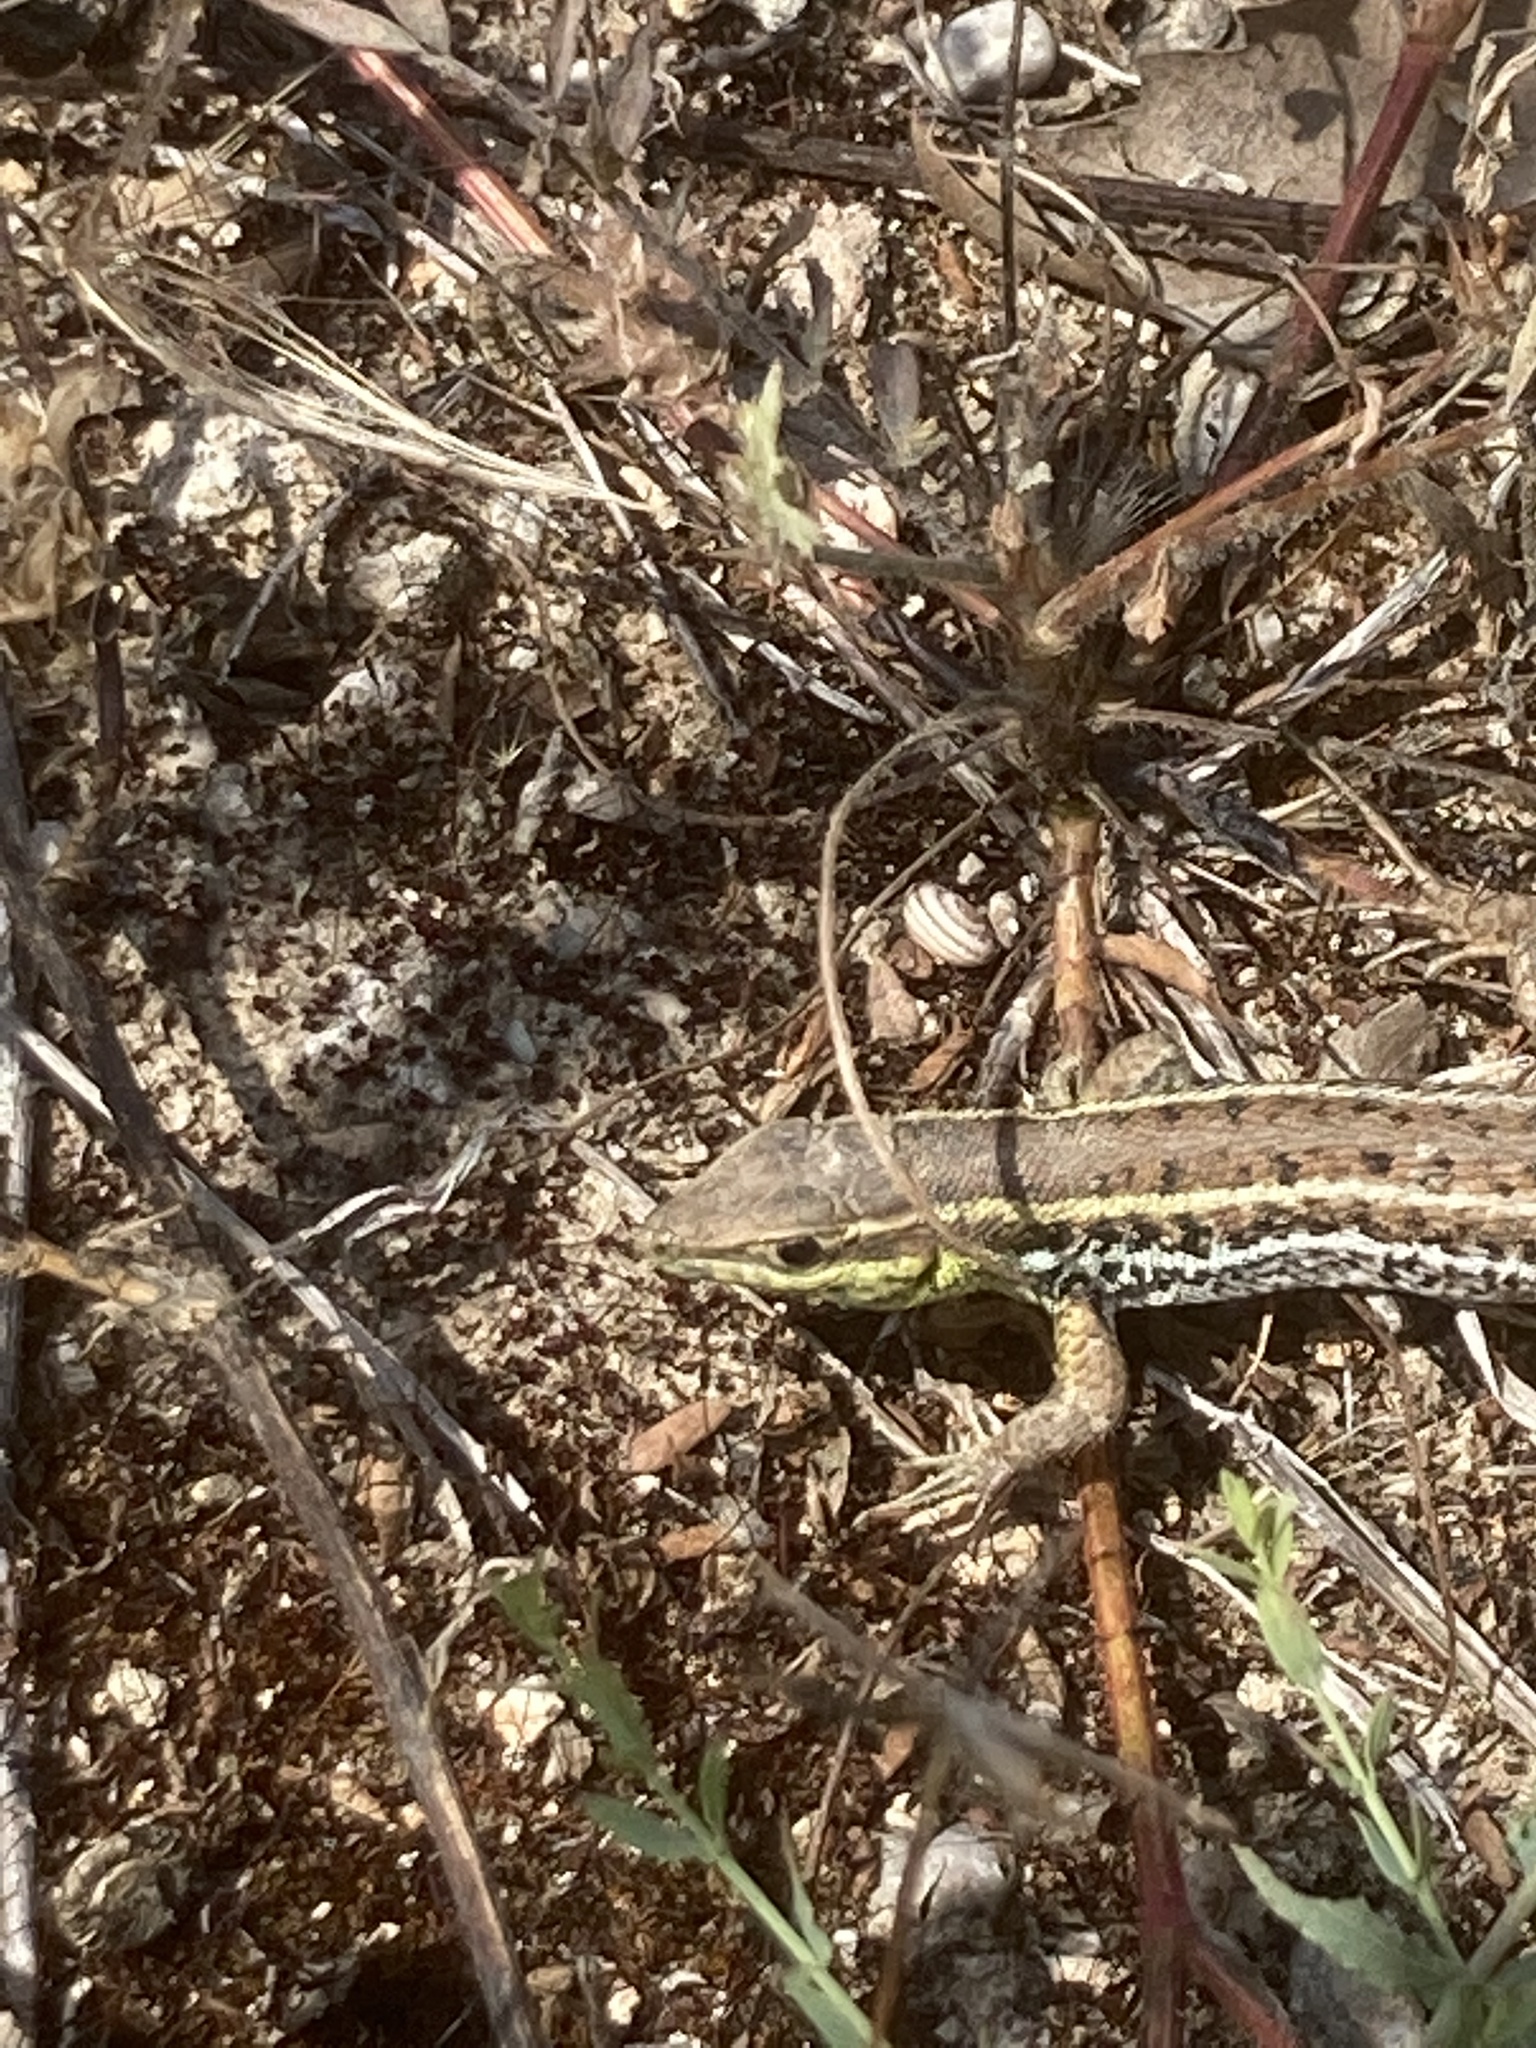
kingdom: Animalia
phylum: Chordata
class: Squamata
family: Lacertidae
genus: Ophisops
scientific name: Ophisops elegans
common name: Snake-eyed lizard
